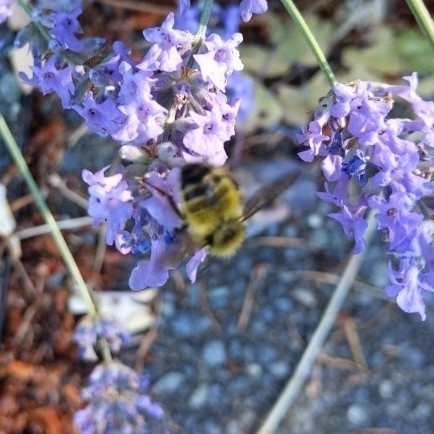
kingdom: Animalia
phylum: Arthropoda
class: Insecta
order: Hymenoptera
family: Apidae
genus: Bombus
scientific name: Bombus flavifrons
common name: Yellow head bumble bee
